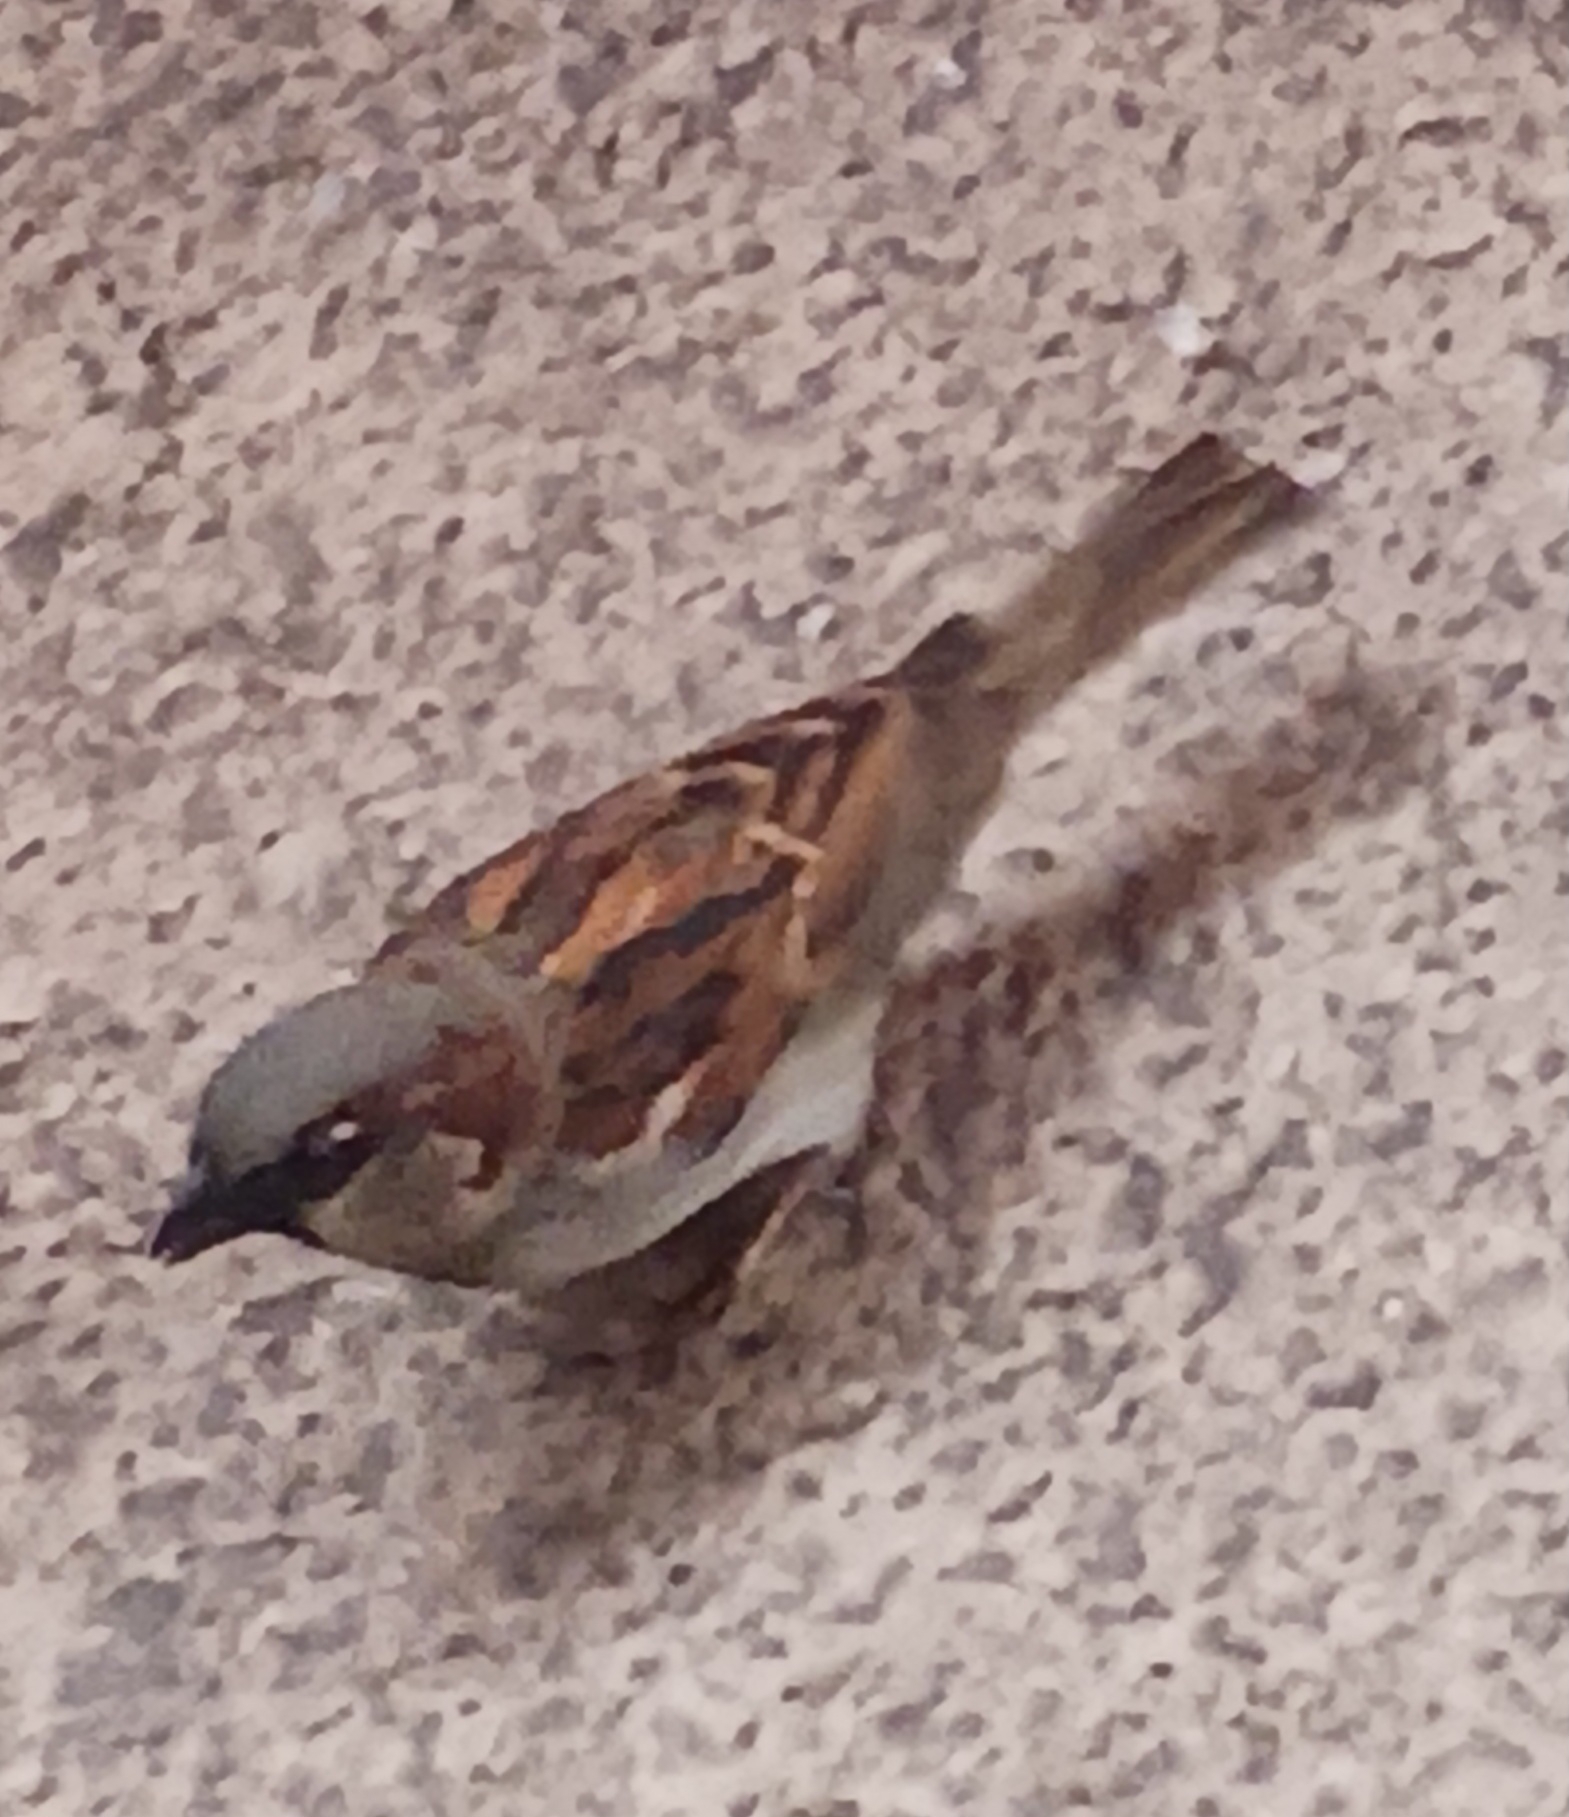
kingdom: Animalia
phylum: Chordata
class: Aves
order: Passeriformes
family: Passeridae
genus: Passer
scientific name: Passer domesticus
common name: House sparrow
